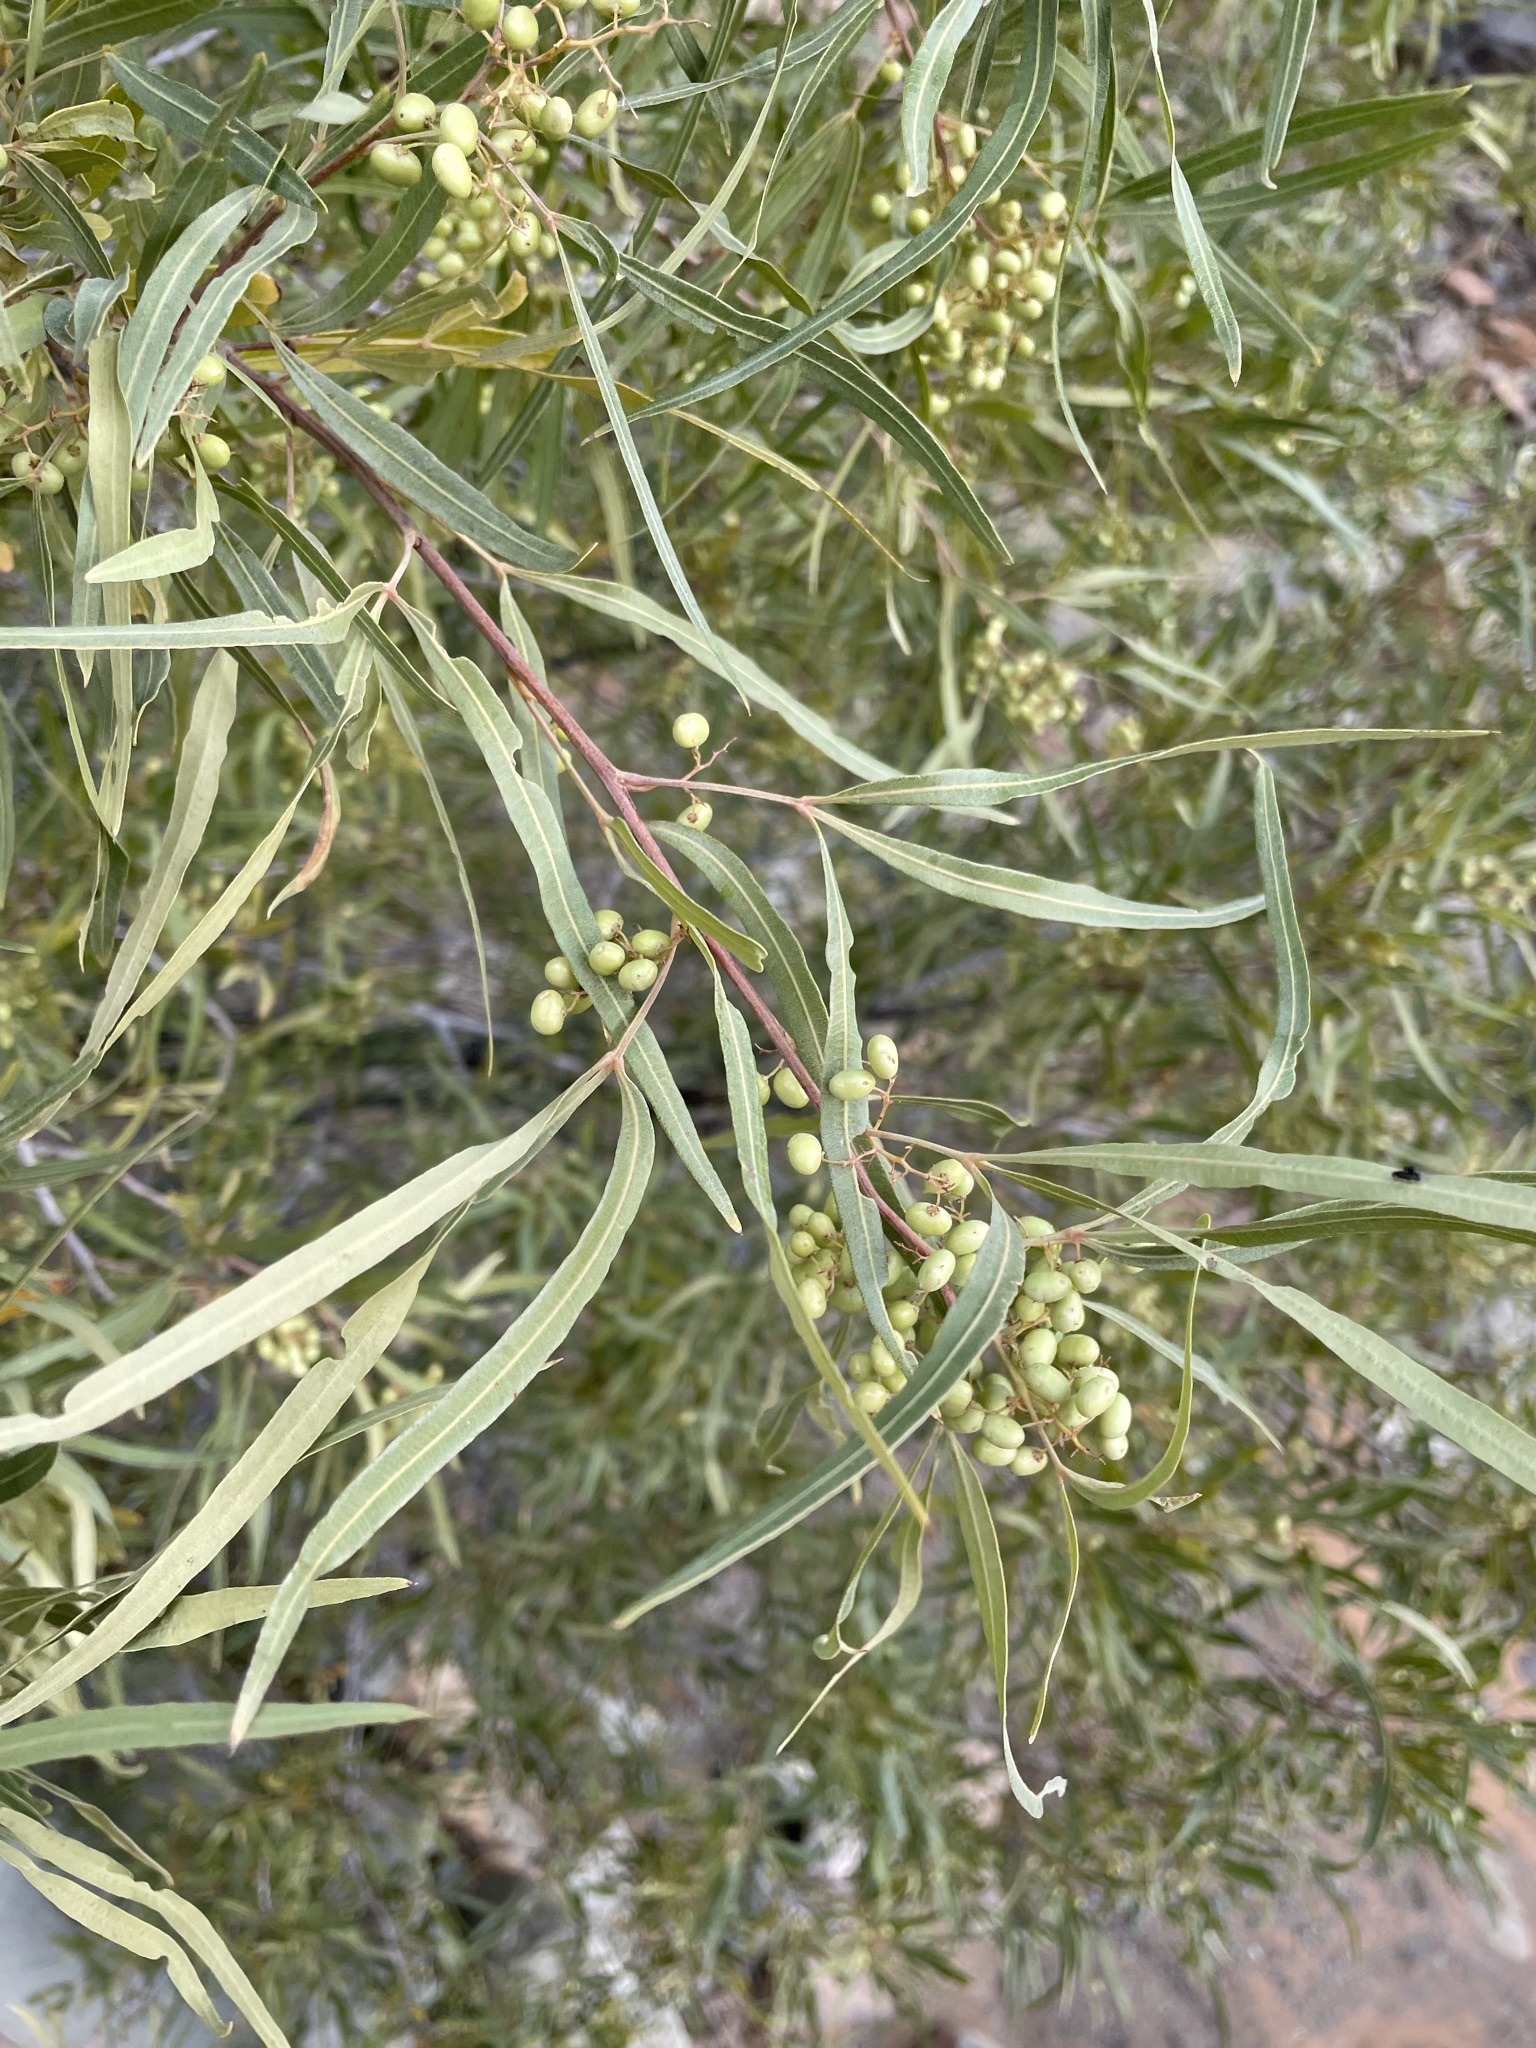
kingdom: Plantae
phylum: Tracheophyta
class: Magnoliopsida
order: Sapindales
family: Anacardiaceae
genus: Searsia
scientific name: Searsia lancea
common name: Cashew
